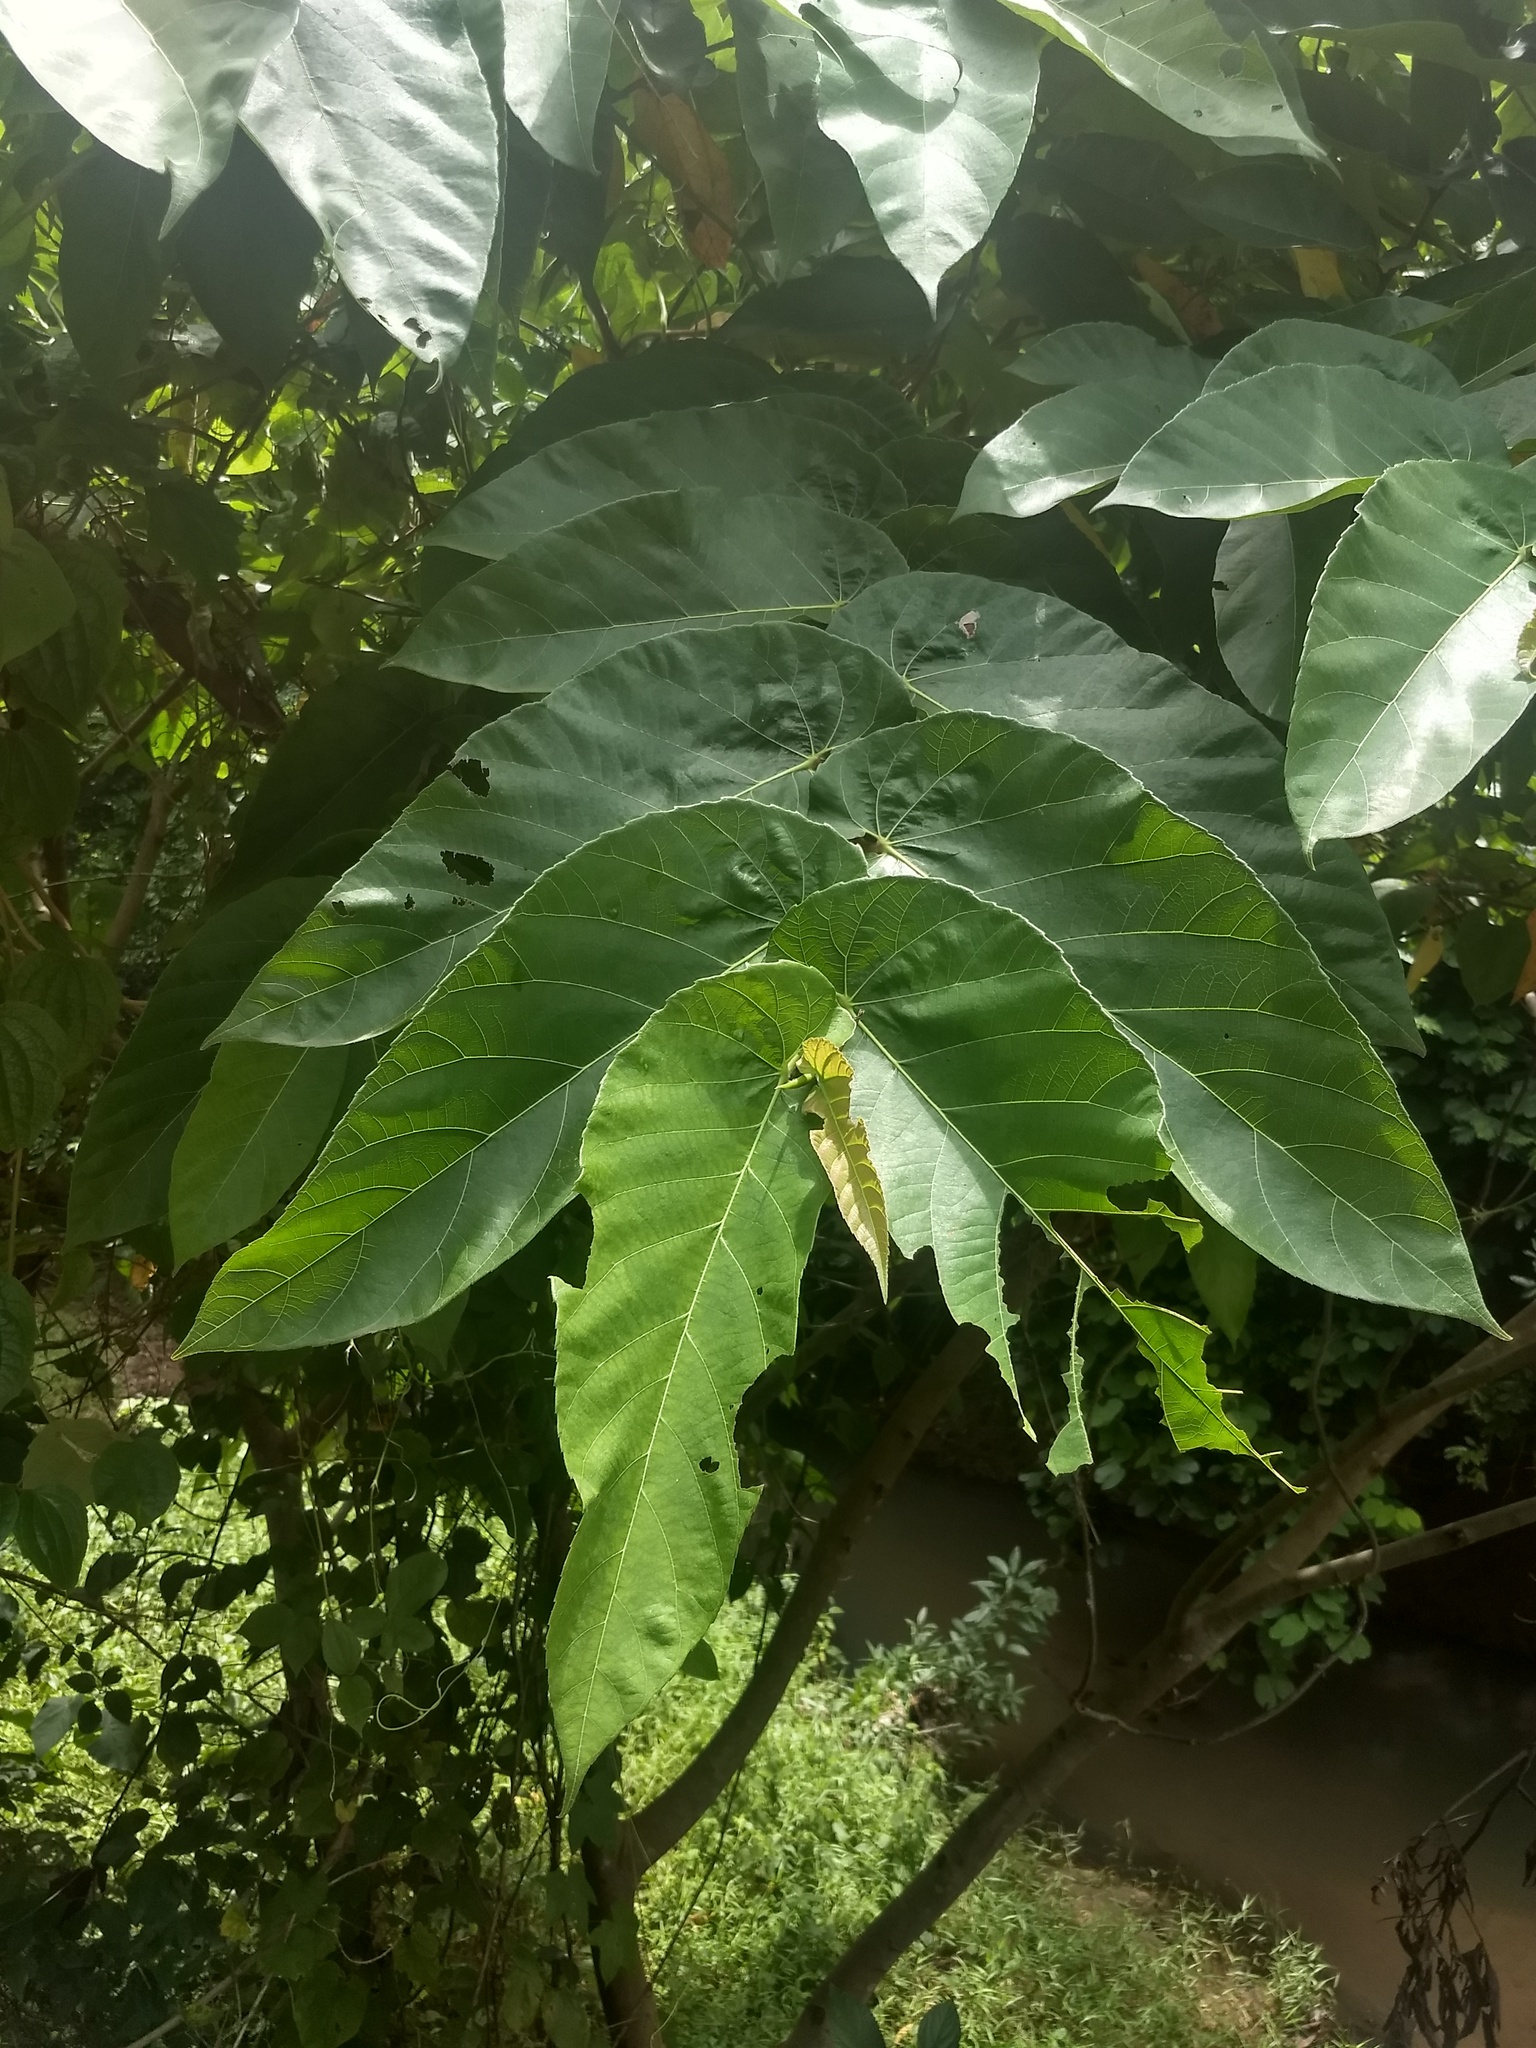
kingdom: Plantae
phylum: Tracheophyta
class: Magnoliopsida
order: Rosales
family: Moraceae
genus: Ficus
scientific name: Ficus semicordata
